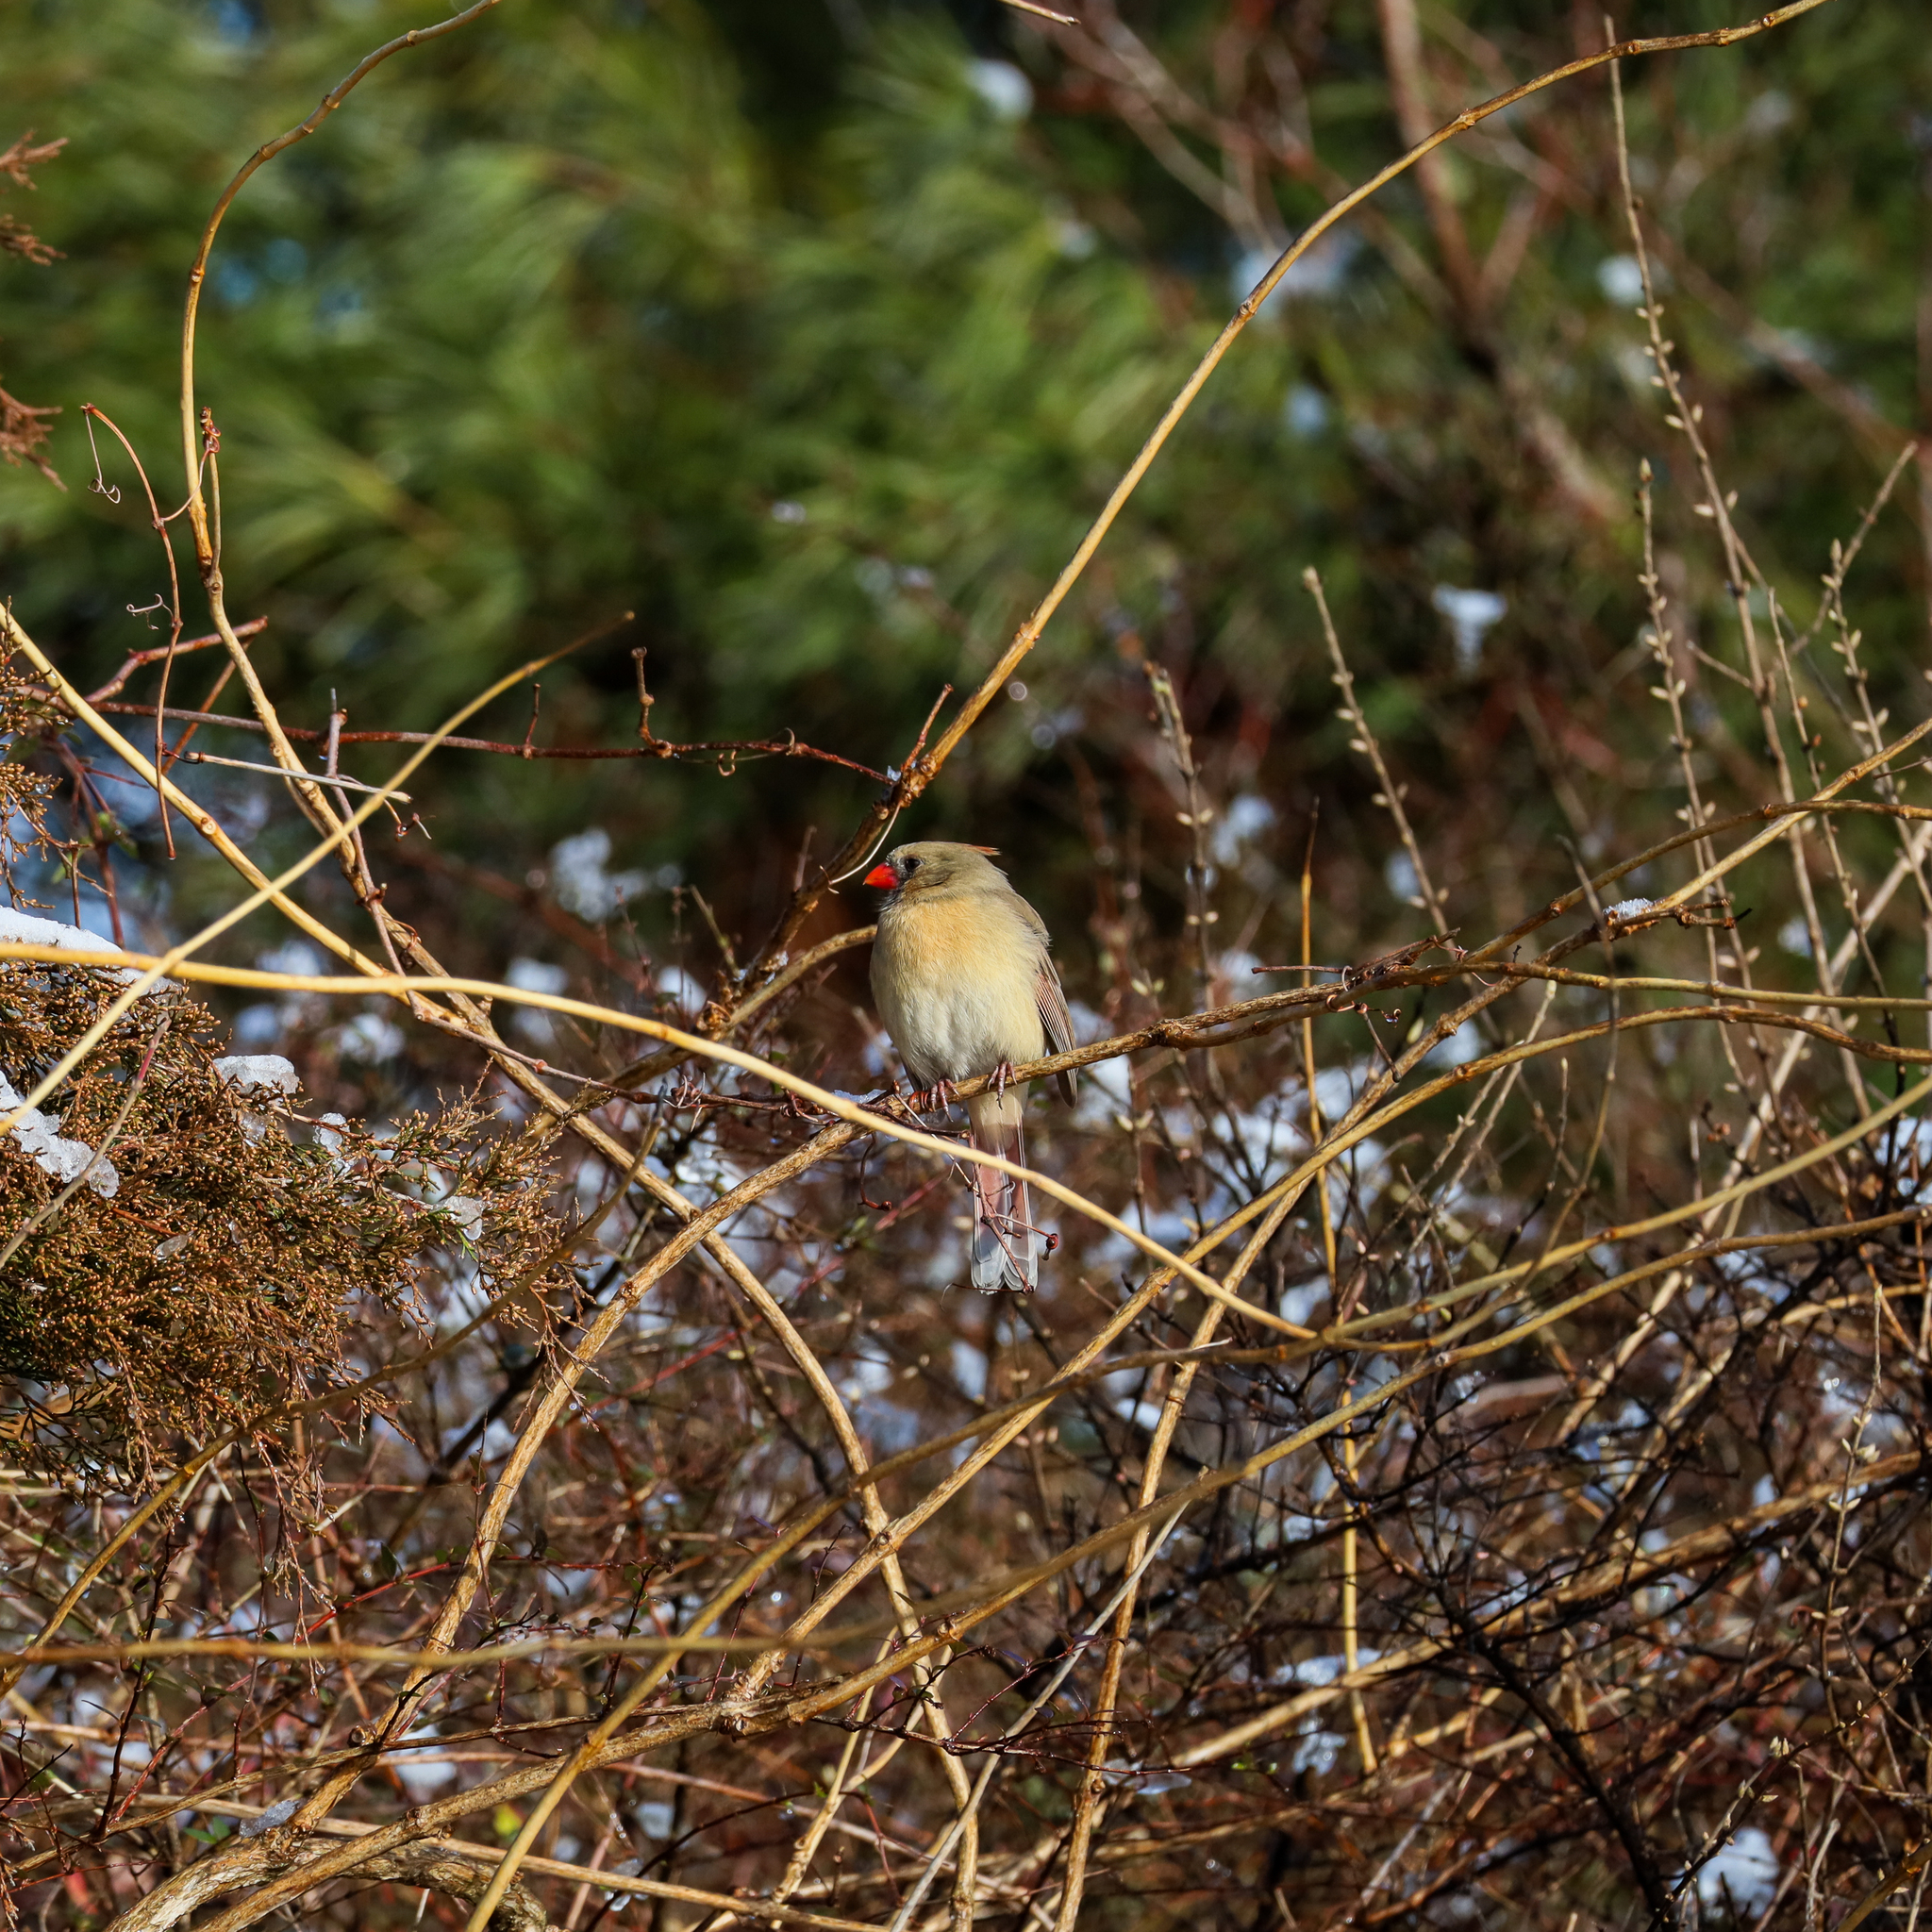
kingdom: Animalia
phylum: Chordata
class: Aves
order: Passeriformes
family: Cardinalidae
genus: Cardinalis
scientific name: Cardinalis cardinalis
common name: Northern cardinal
